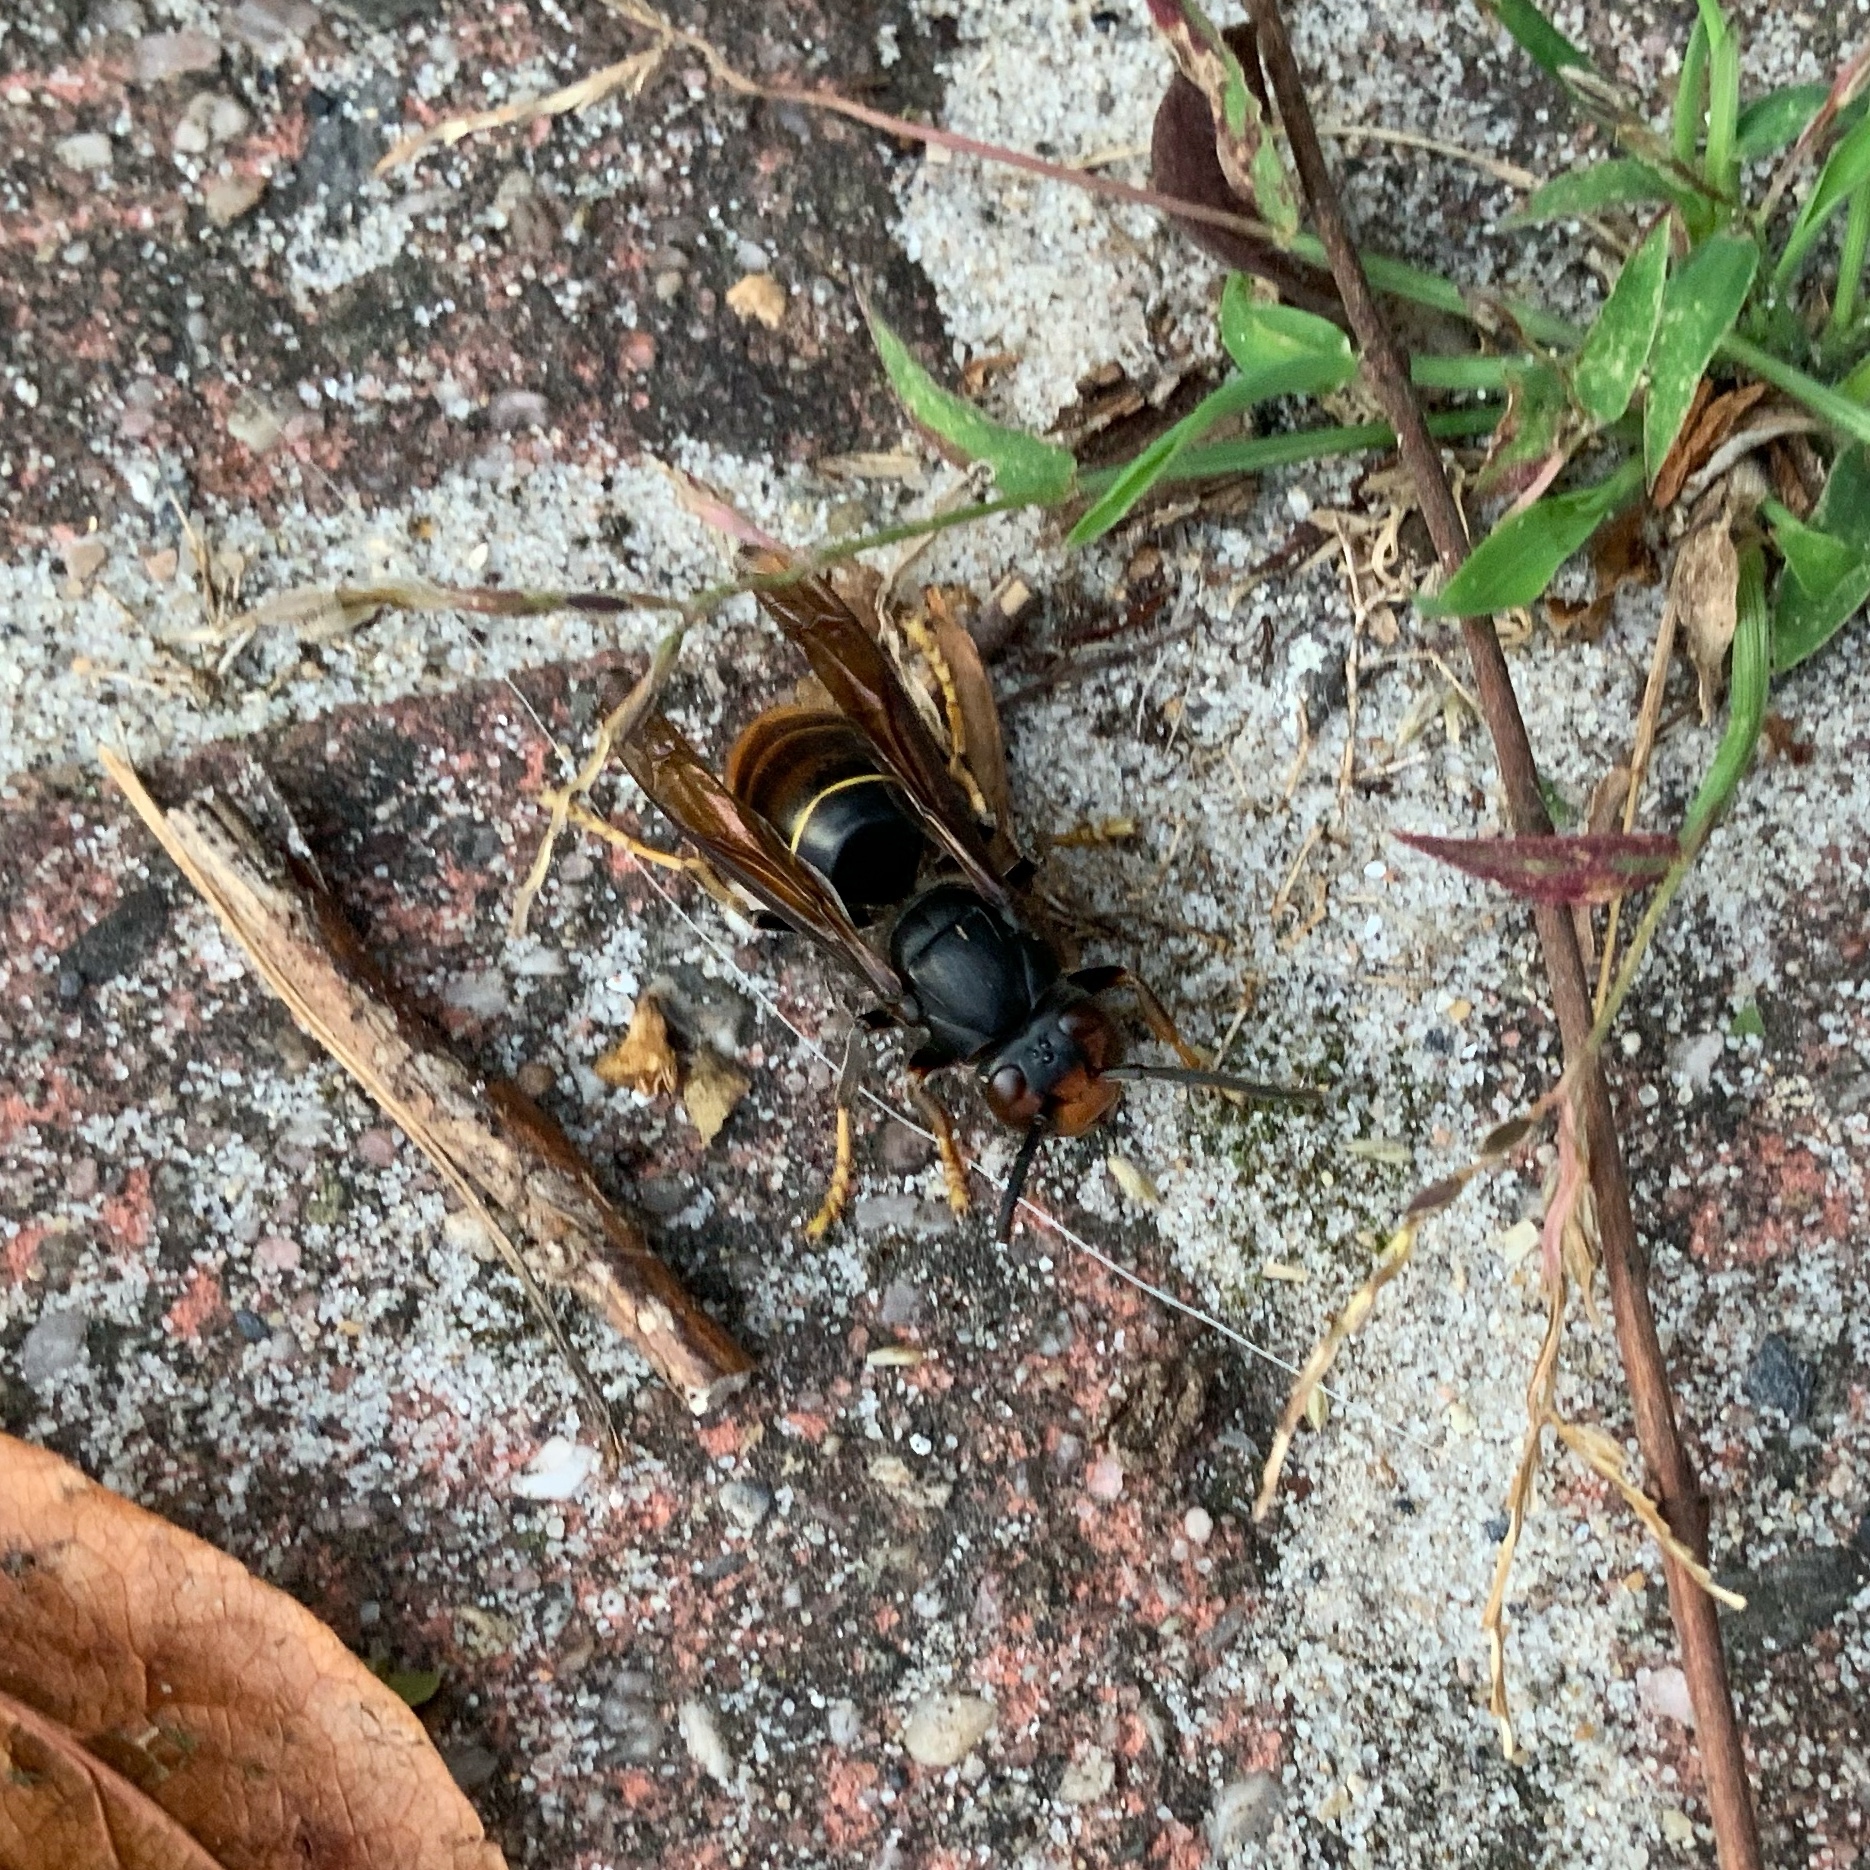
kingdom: Animalia
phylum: Arthropoda
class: Insecta
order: Hymenoptera
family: Vespidae
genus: Vespa
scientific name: Vespa velutina
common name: Asian hornet
